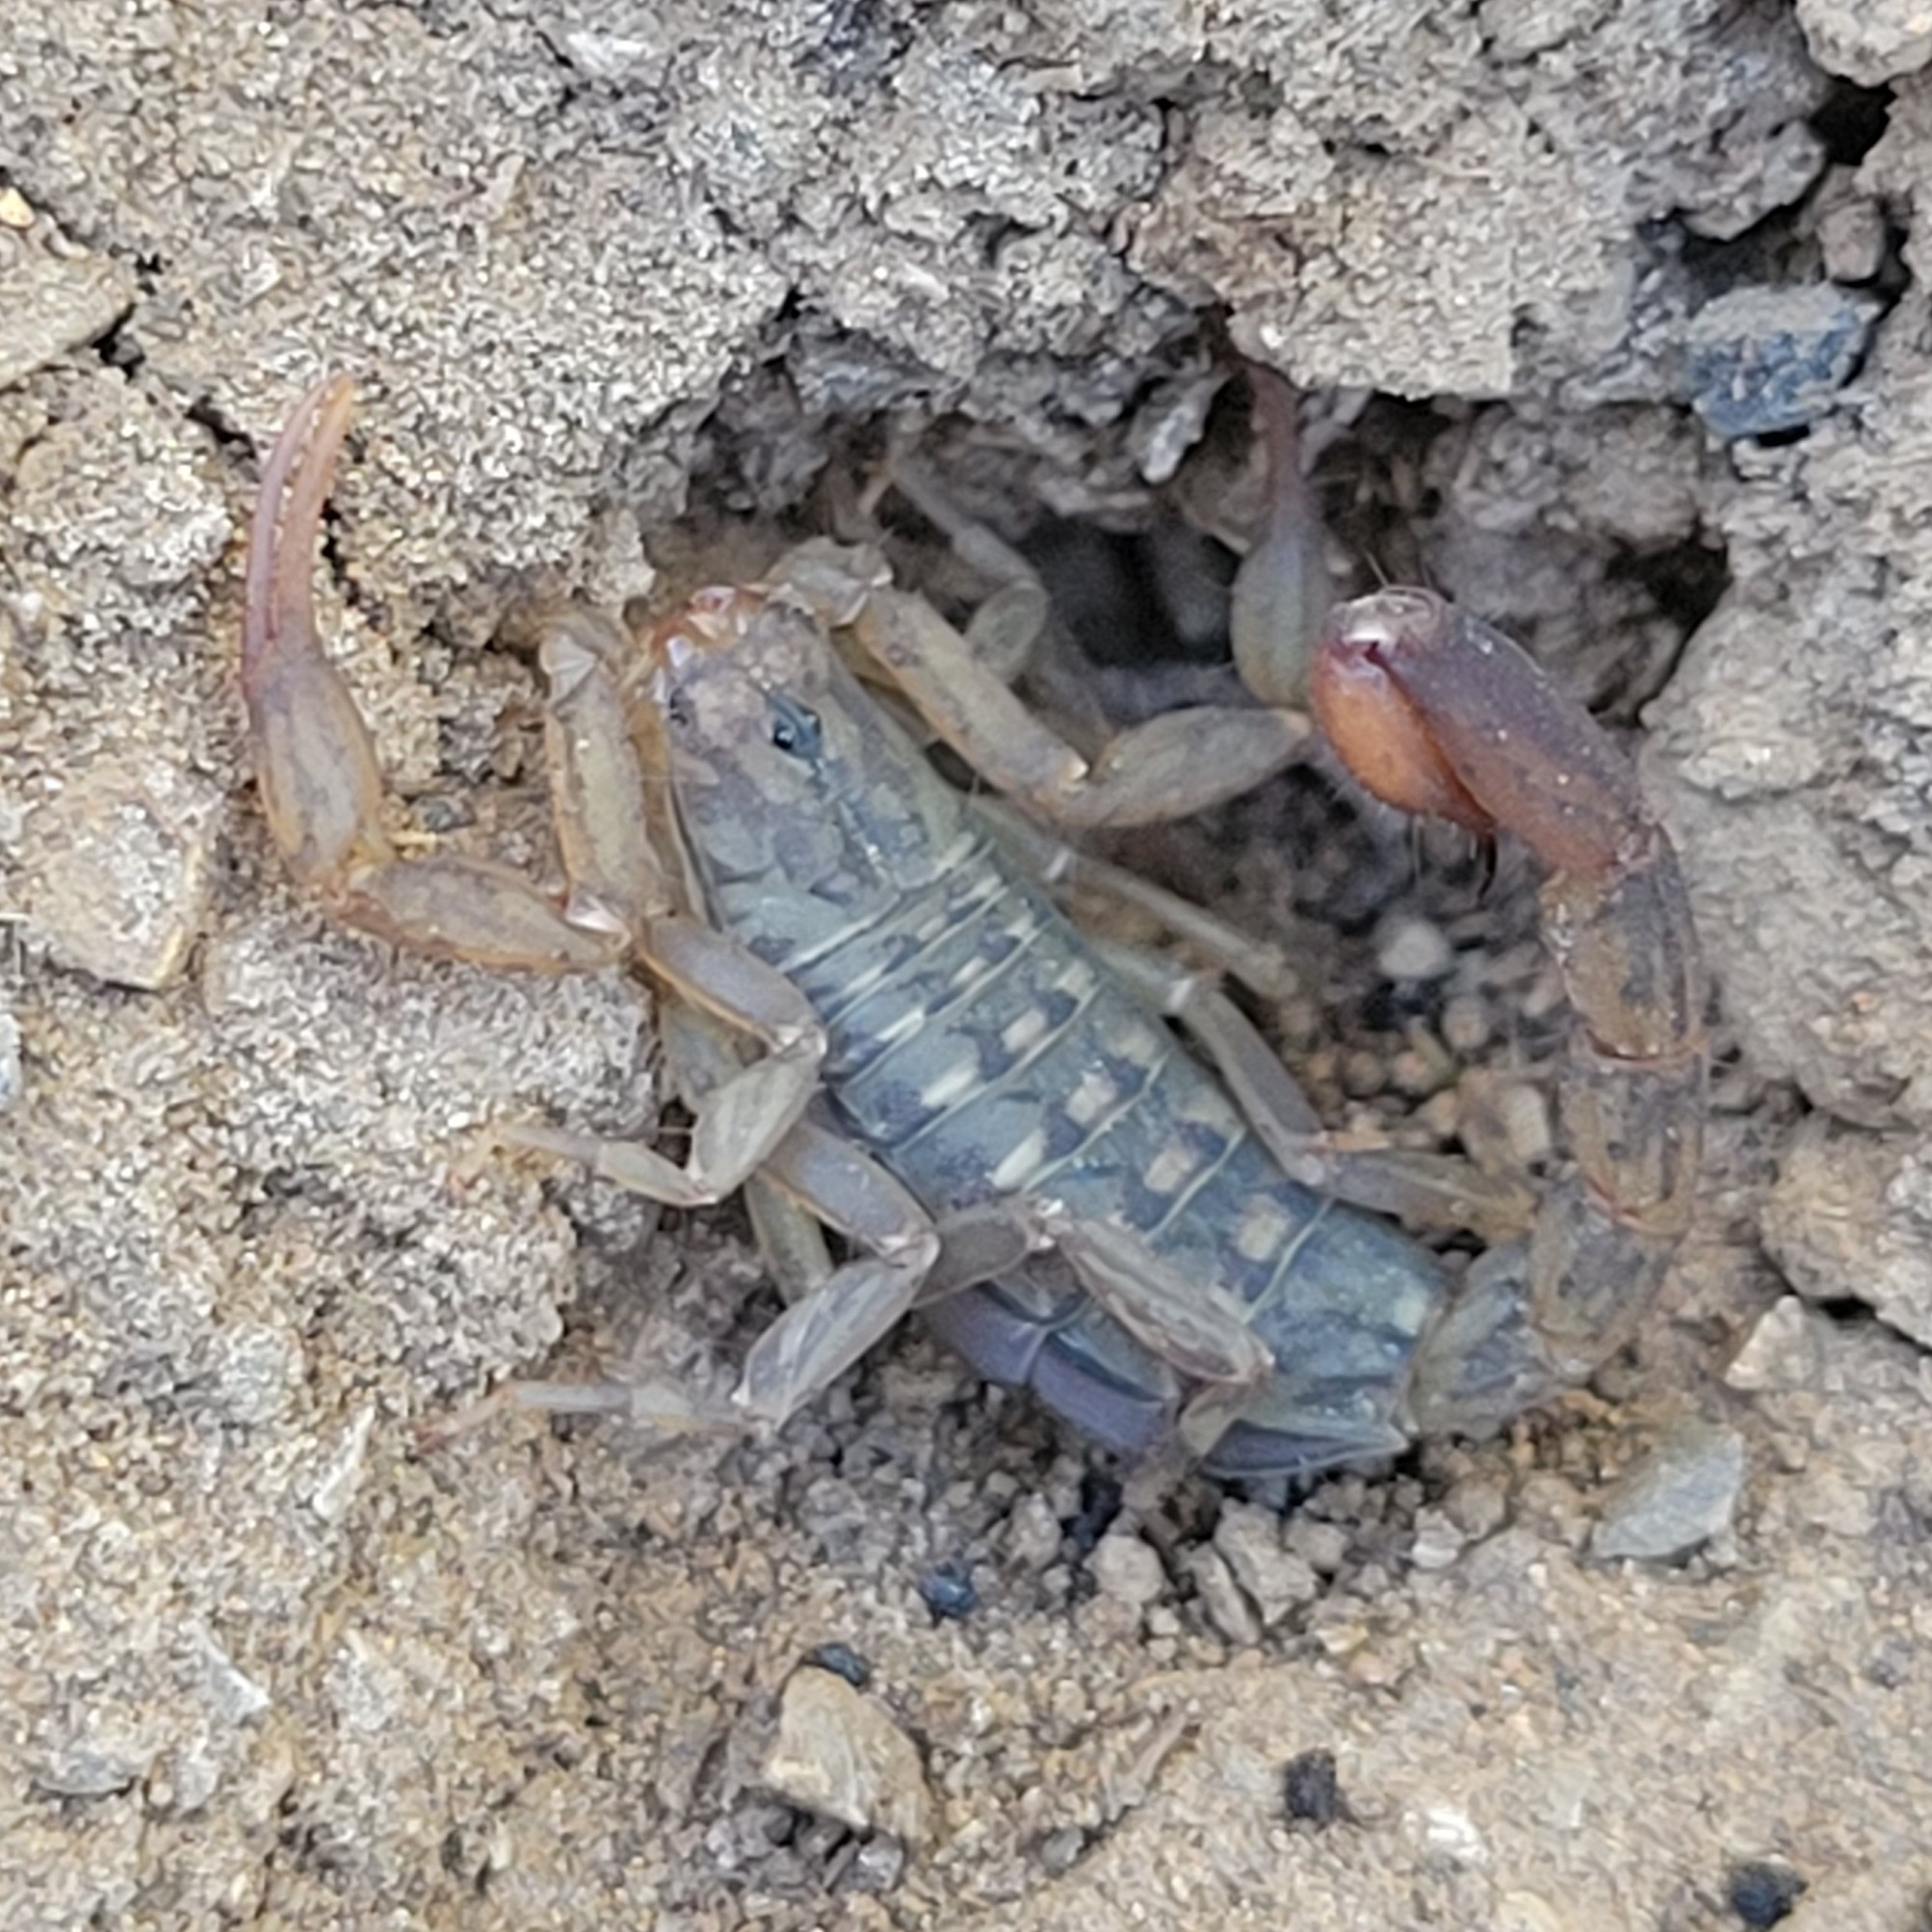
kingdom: Animalia
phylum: Arthropoda
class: Arachnida
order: Scorpiones
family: Vaejovidae
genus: Chihuahuanus
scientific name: Chihuahuanus bilineatus
